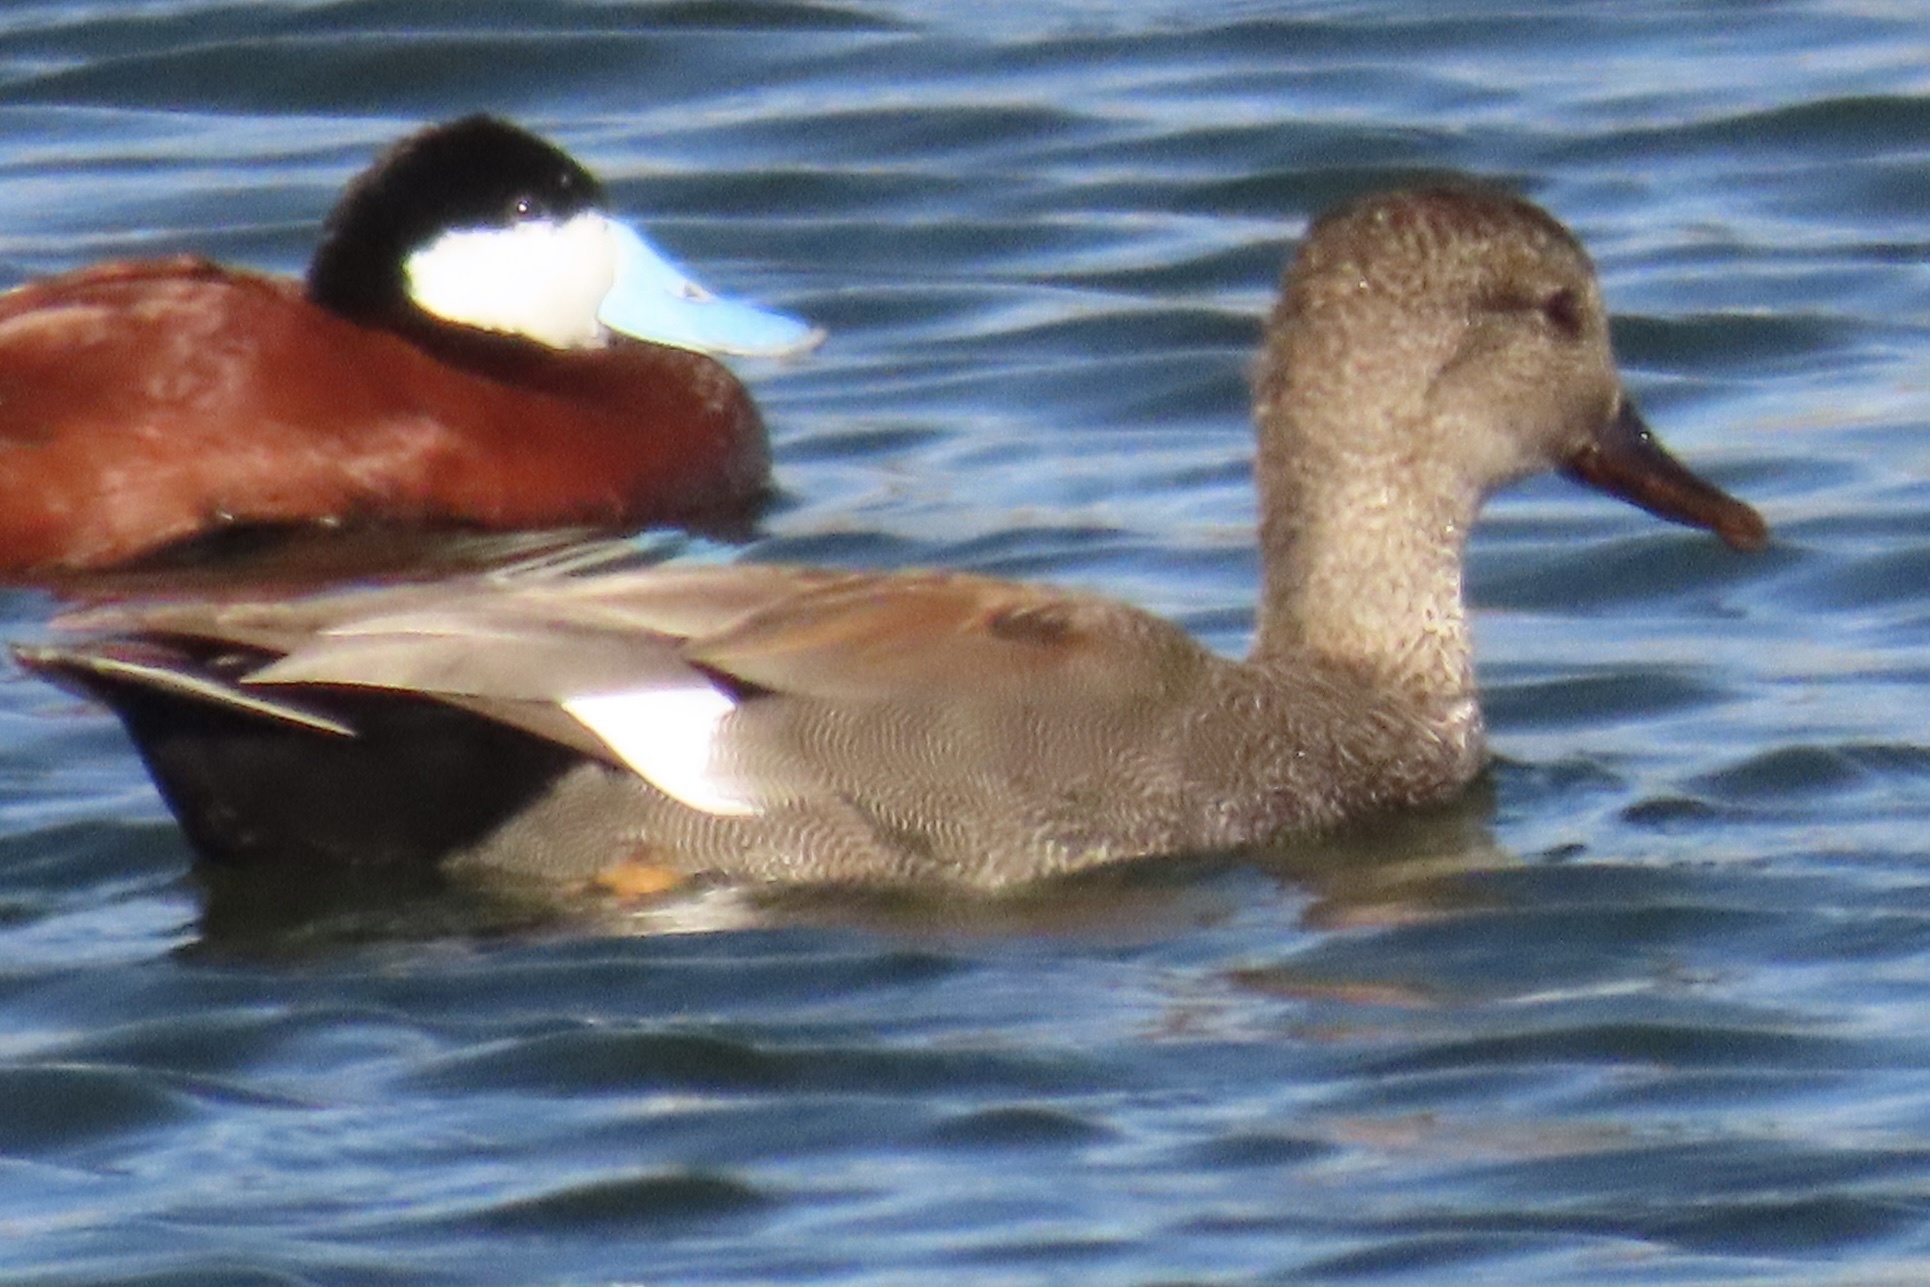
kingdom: Animalia
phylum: Chordata
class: Aves
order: Anseriformes
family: Anatidae
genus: Mareca
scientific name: Mareca strepera
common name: Gadwall
